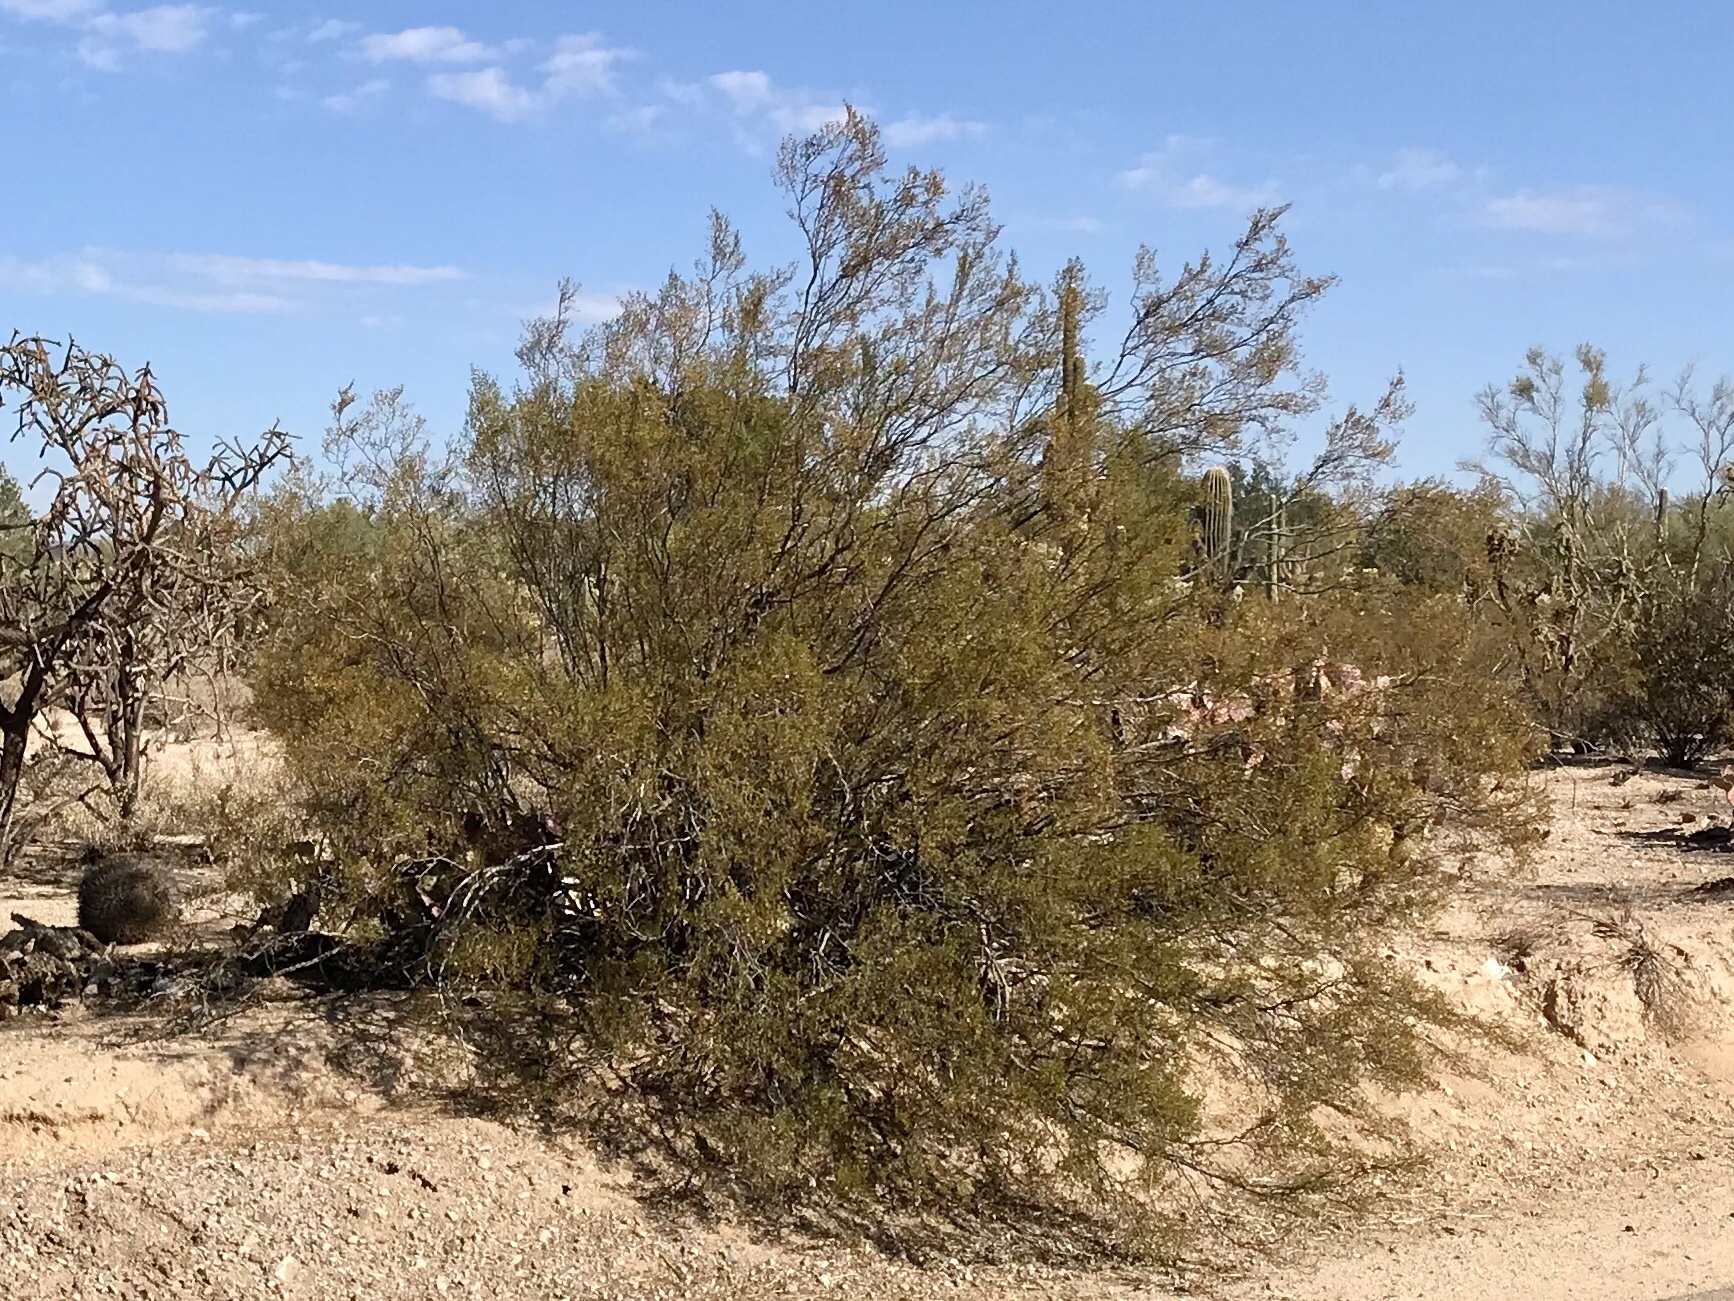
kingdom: Plantae
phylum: Tracheophyta
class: Magnoliopsida
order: Zygophyllales
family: Zygophyllaceae
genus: Larrea
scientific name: Larrea tridentata
